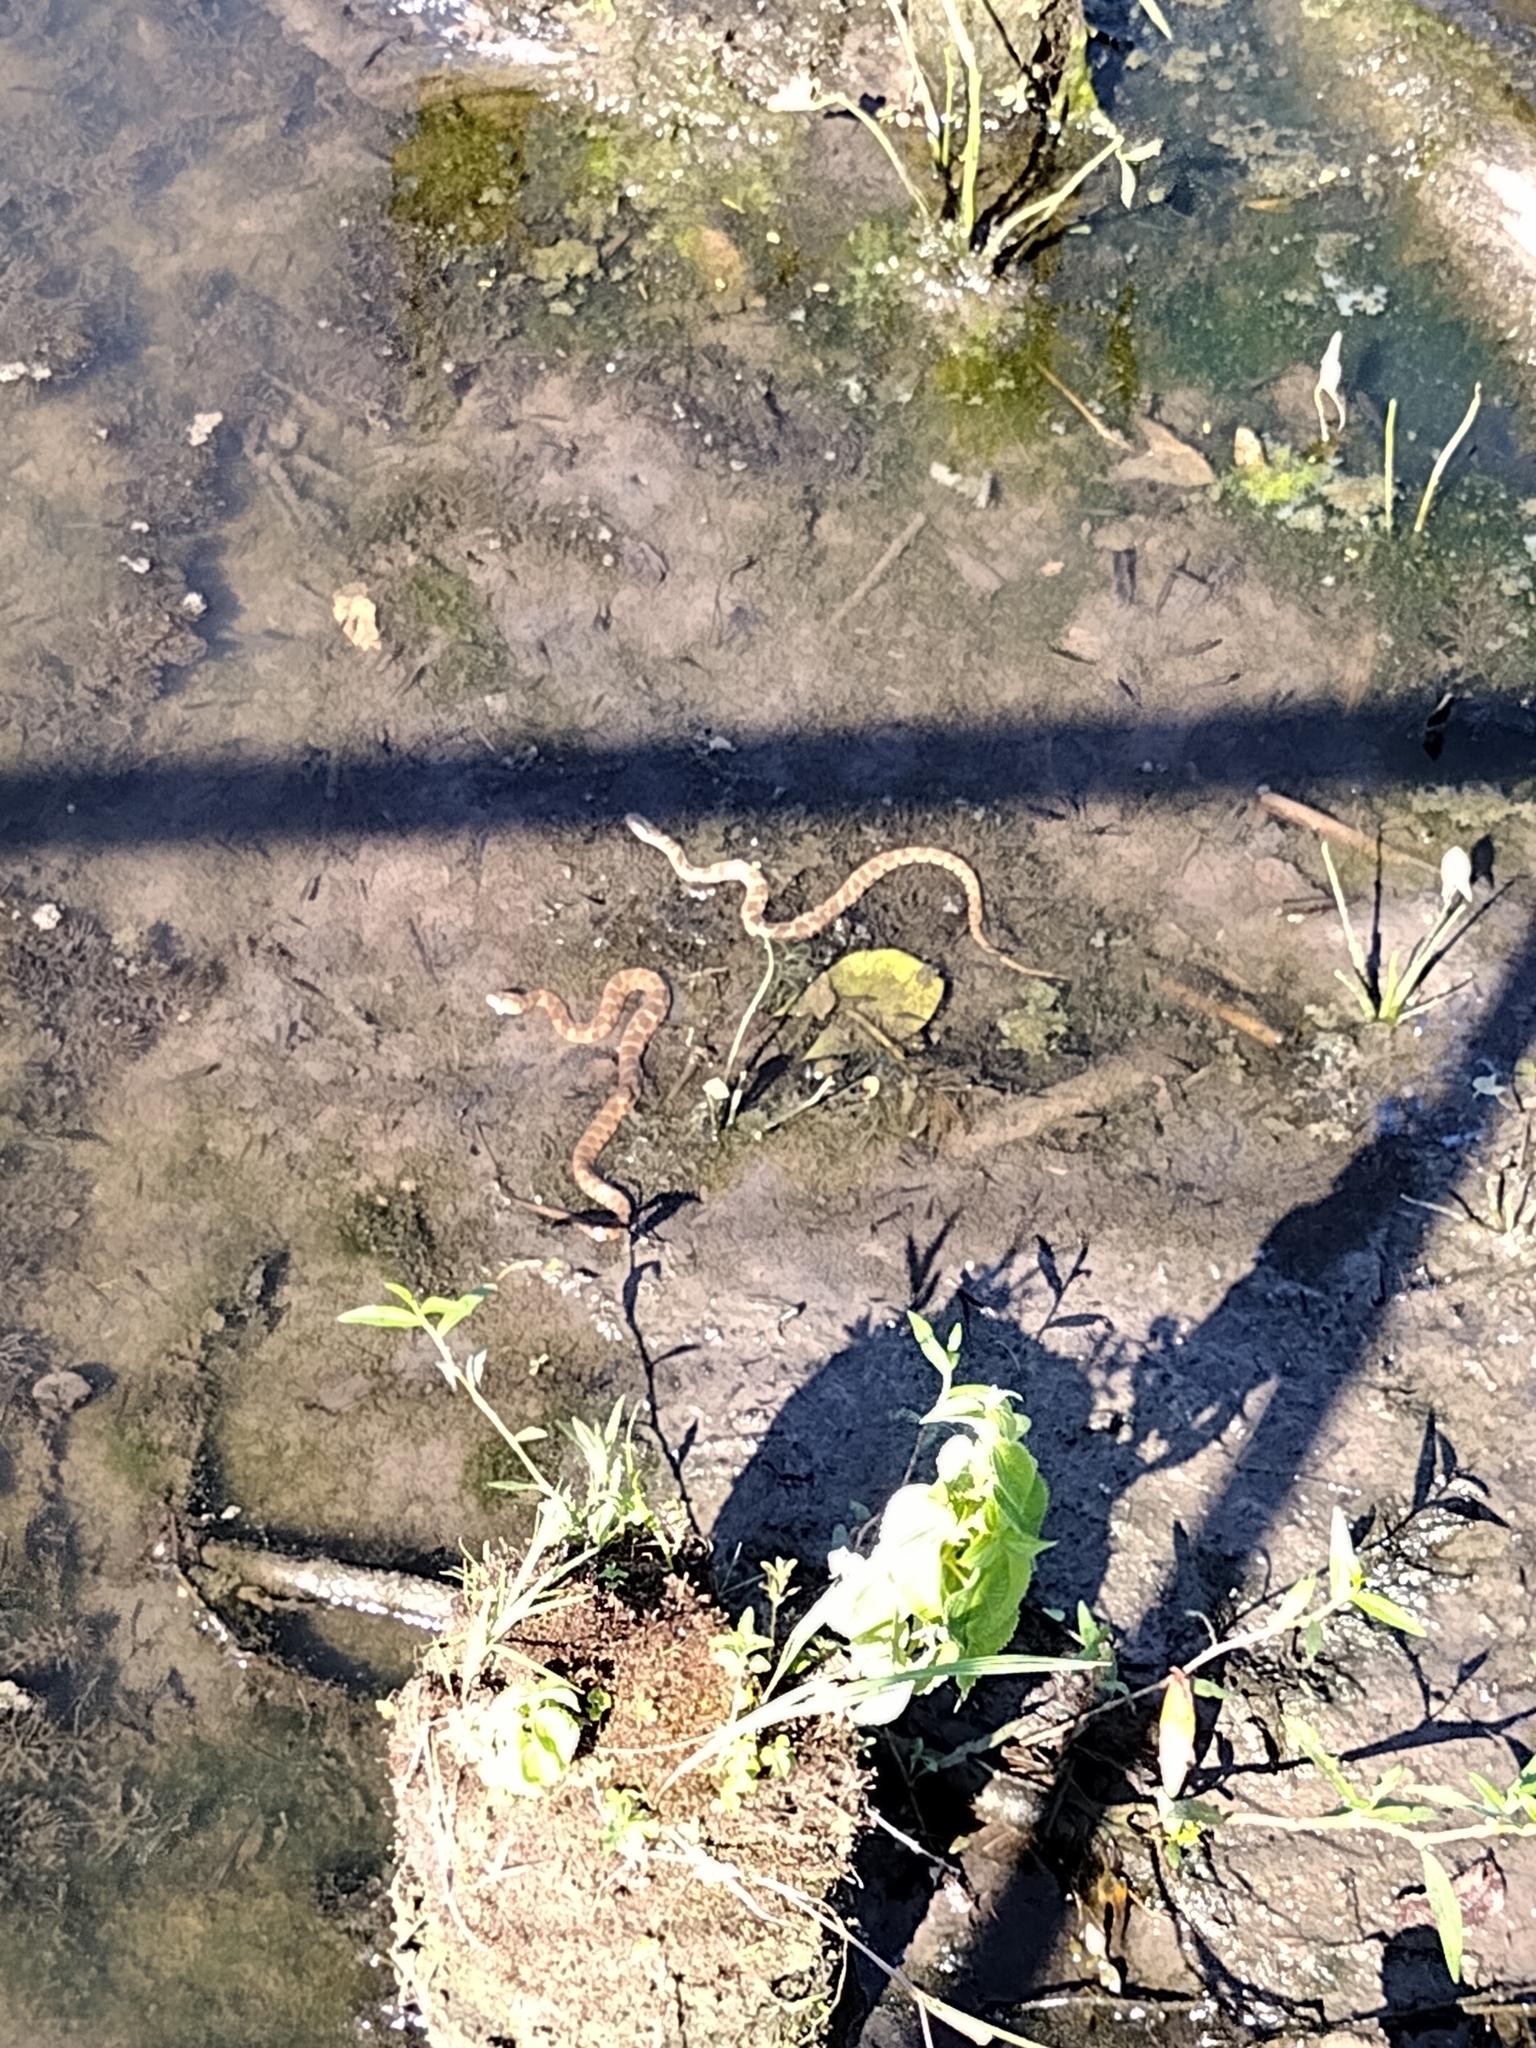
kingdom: Animalia
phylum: Chordata
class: Squamata
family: Colubridae
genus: Nerodia
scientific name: Nerodia sipedon
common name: Northern water snake
